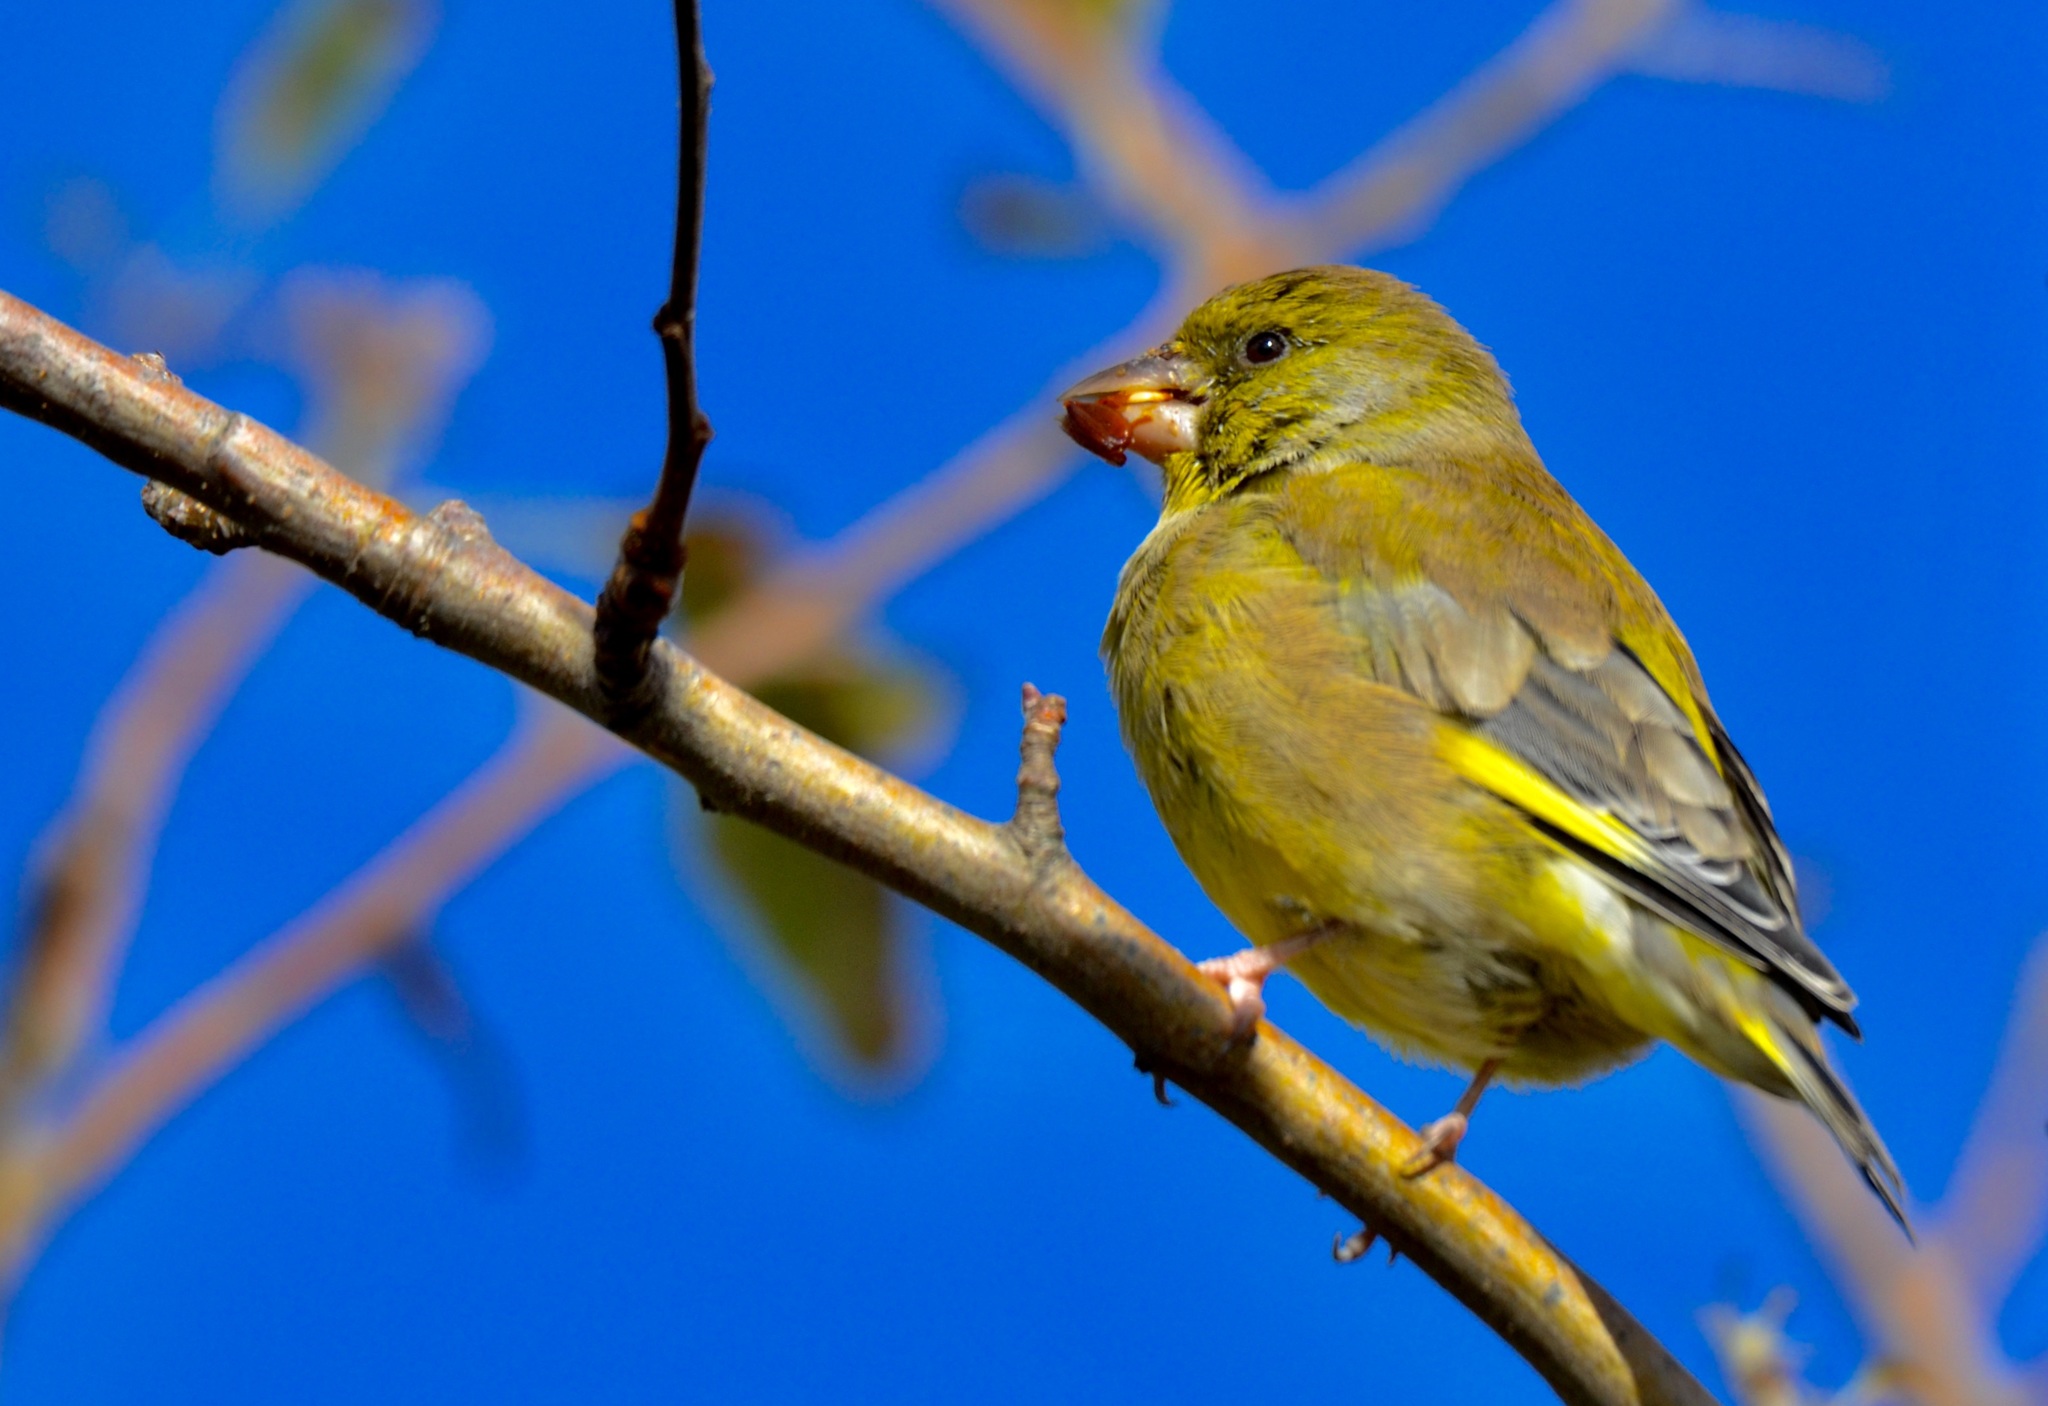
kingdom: Plantae
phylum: Tracheophyta
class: Liliopsida
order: Poales
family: Poaceae
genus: Chloris
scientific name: Chloris chloris
